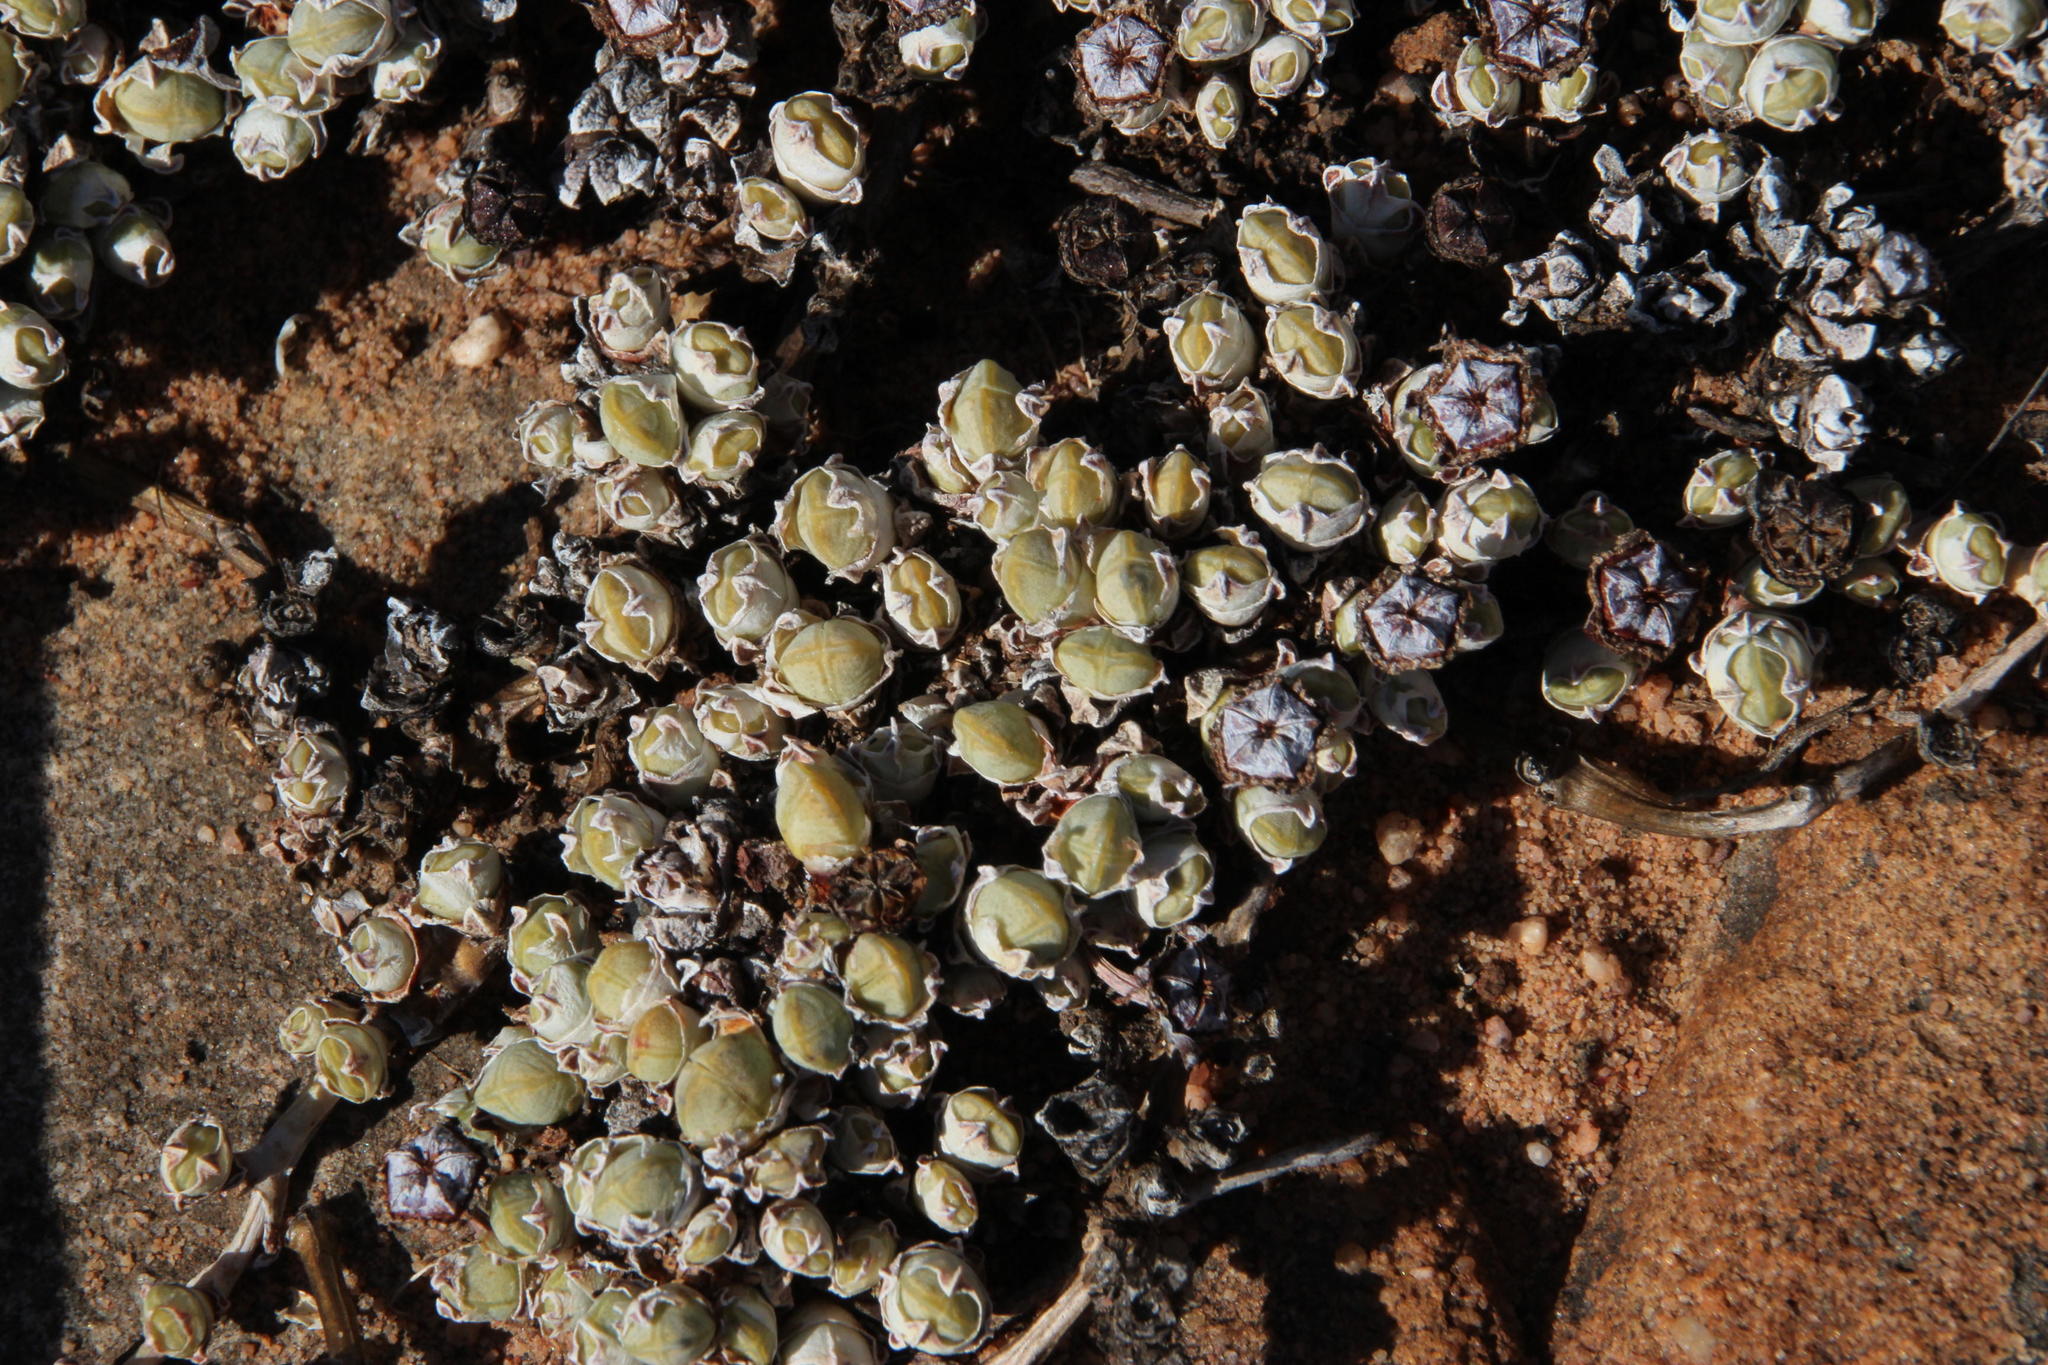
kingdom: Plantae
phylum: Tracheophyta
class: Magnoliopsida
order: Caryophyllales
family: Aizoaceae
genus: Antimima
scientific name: Antimima prostrata
